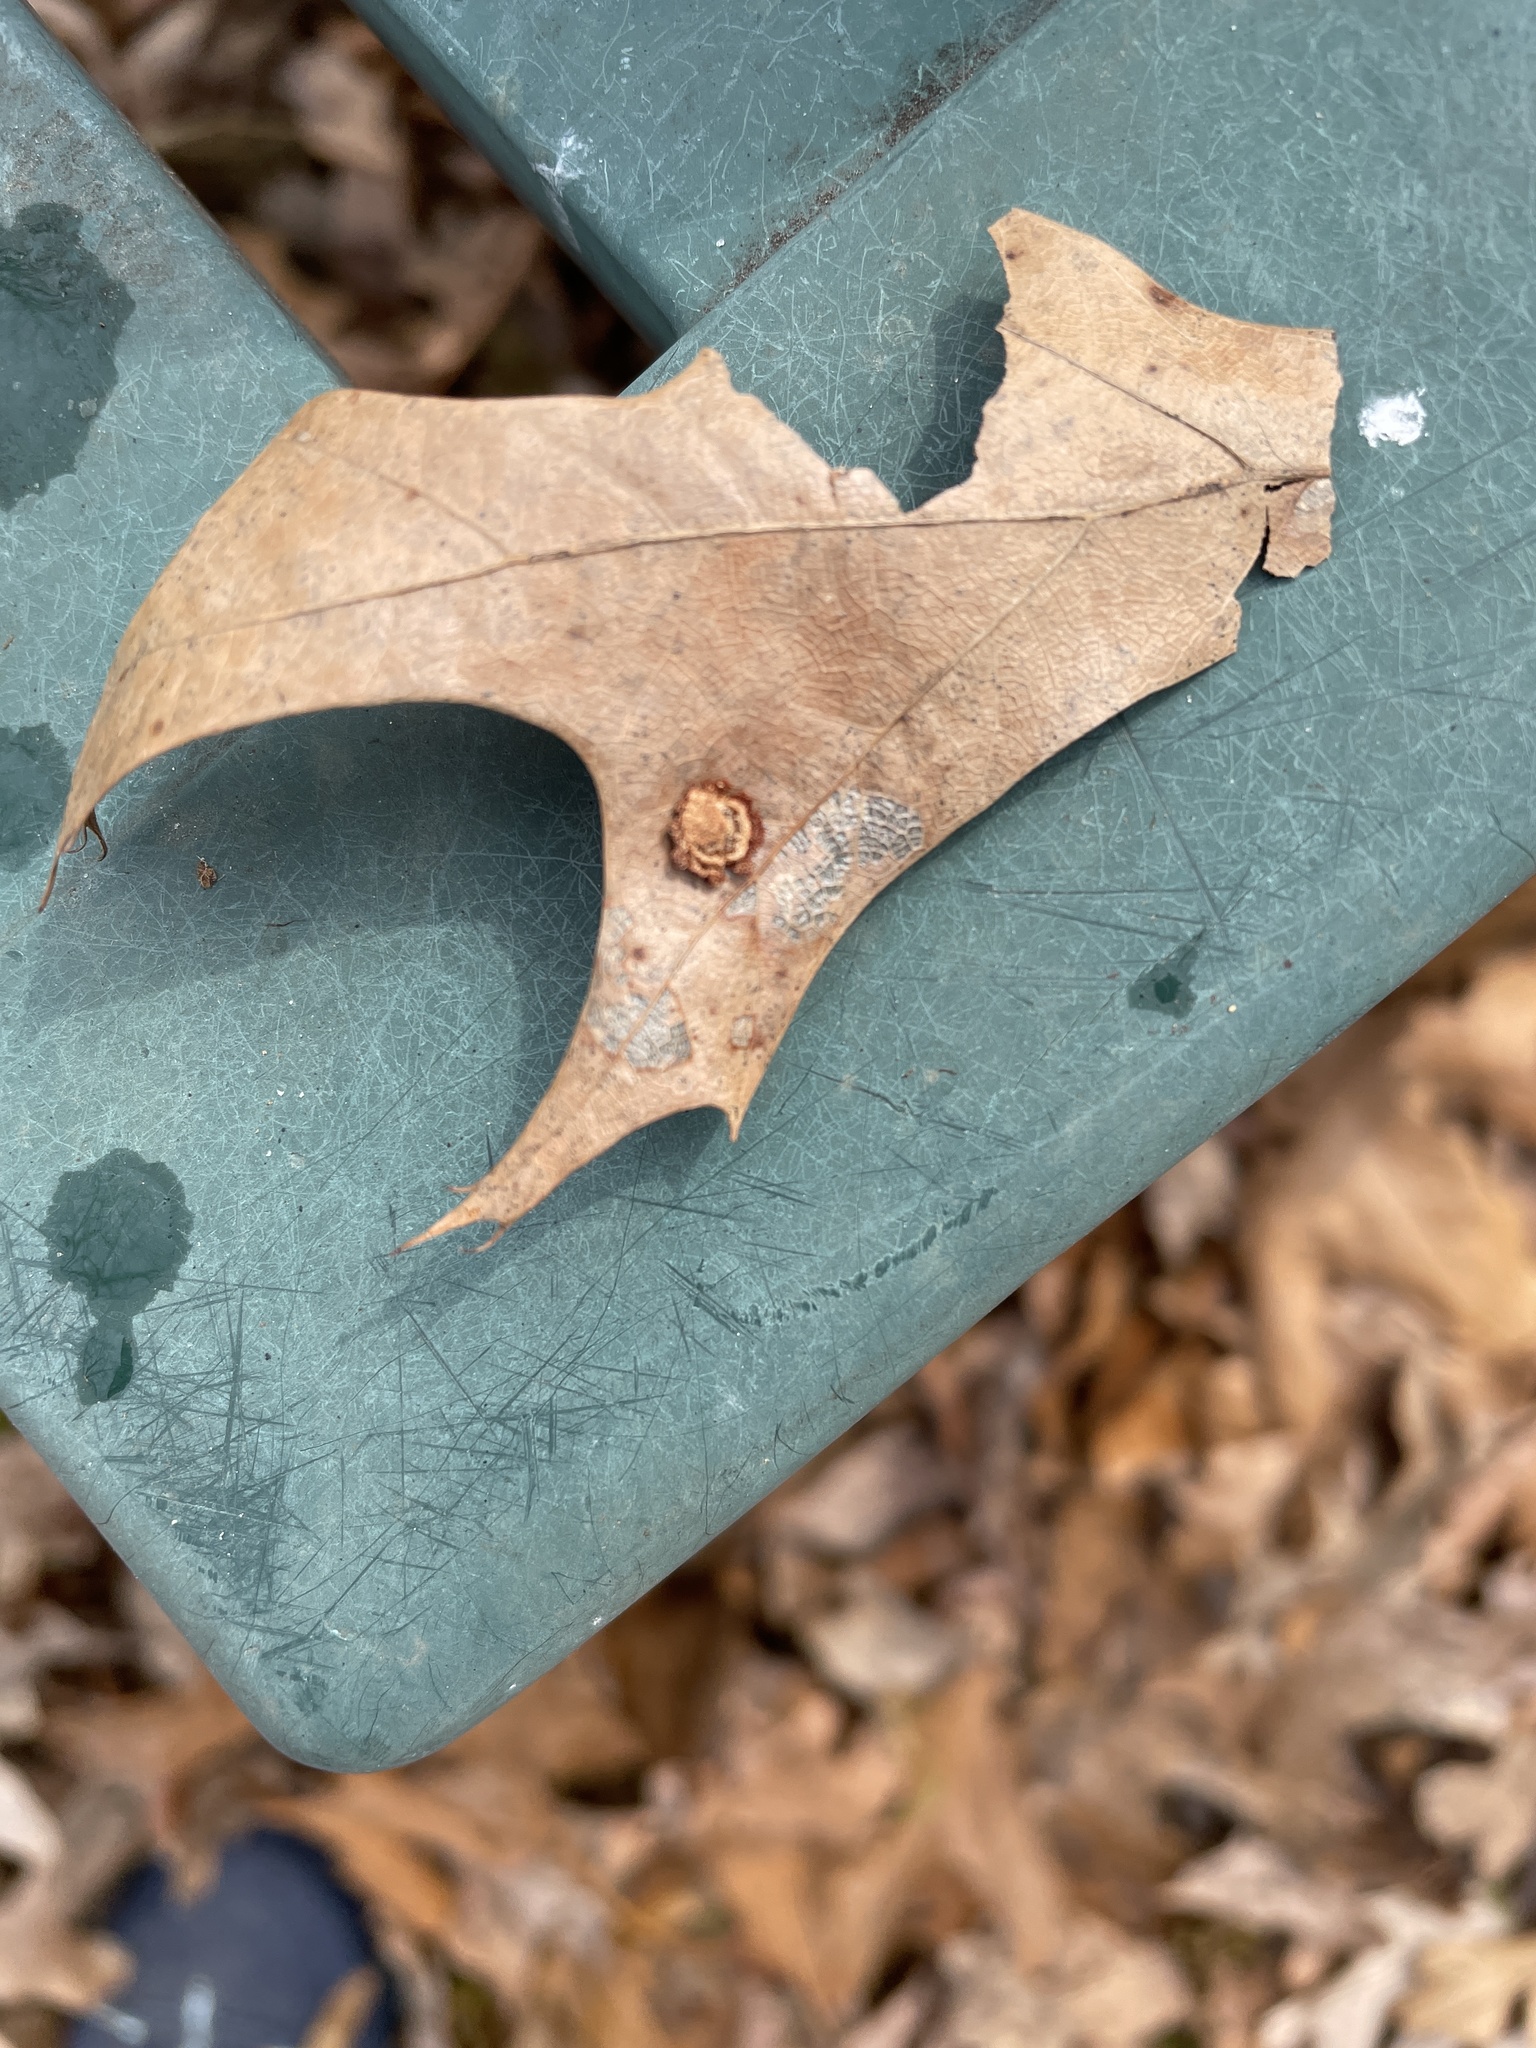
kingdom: Animalia
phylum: Arthropoda
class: Insecta
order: Diptera
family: Cecidomyiidae
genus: Polystepha
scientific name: Polystepha pilulae
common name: Oak leaf gall midge
